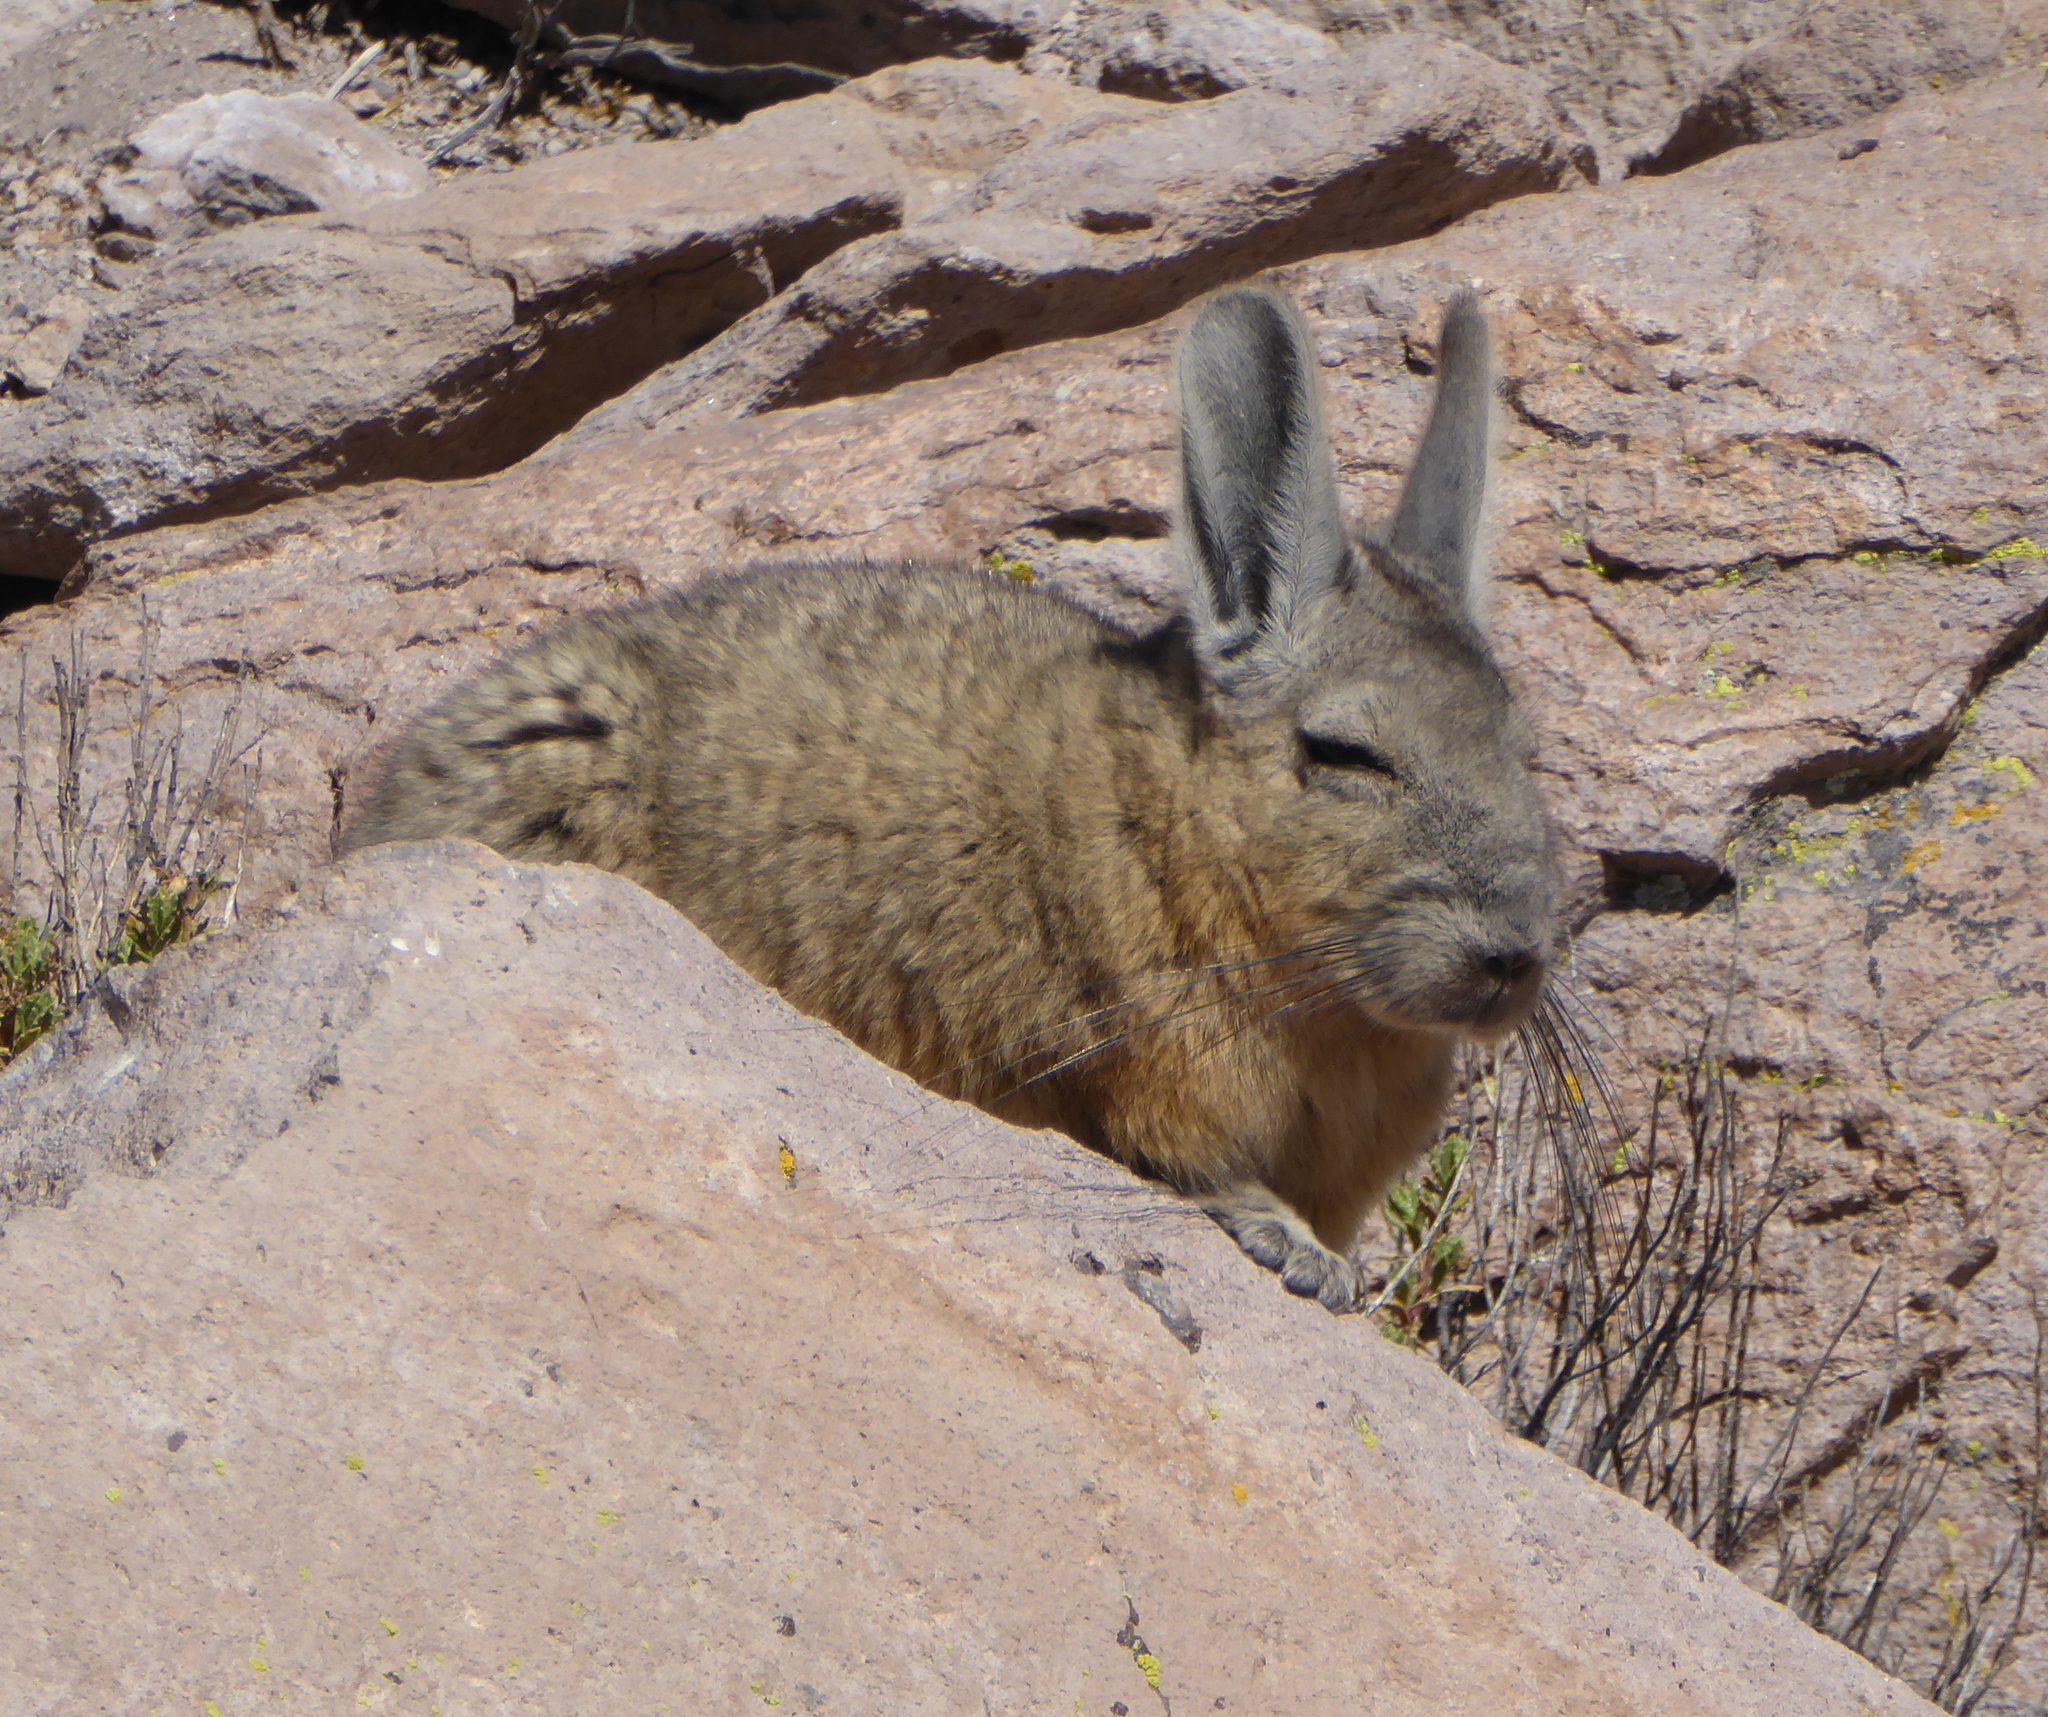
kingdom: Animalia
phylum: Chordata
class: Mammalia
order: Rodentia
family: Chinchillidae
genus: Lagidium
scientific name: Lagidium viscacia
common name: Southern viscacha
